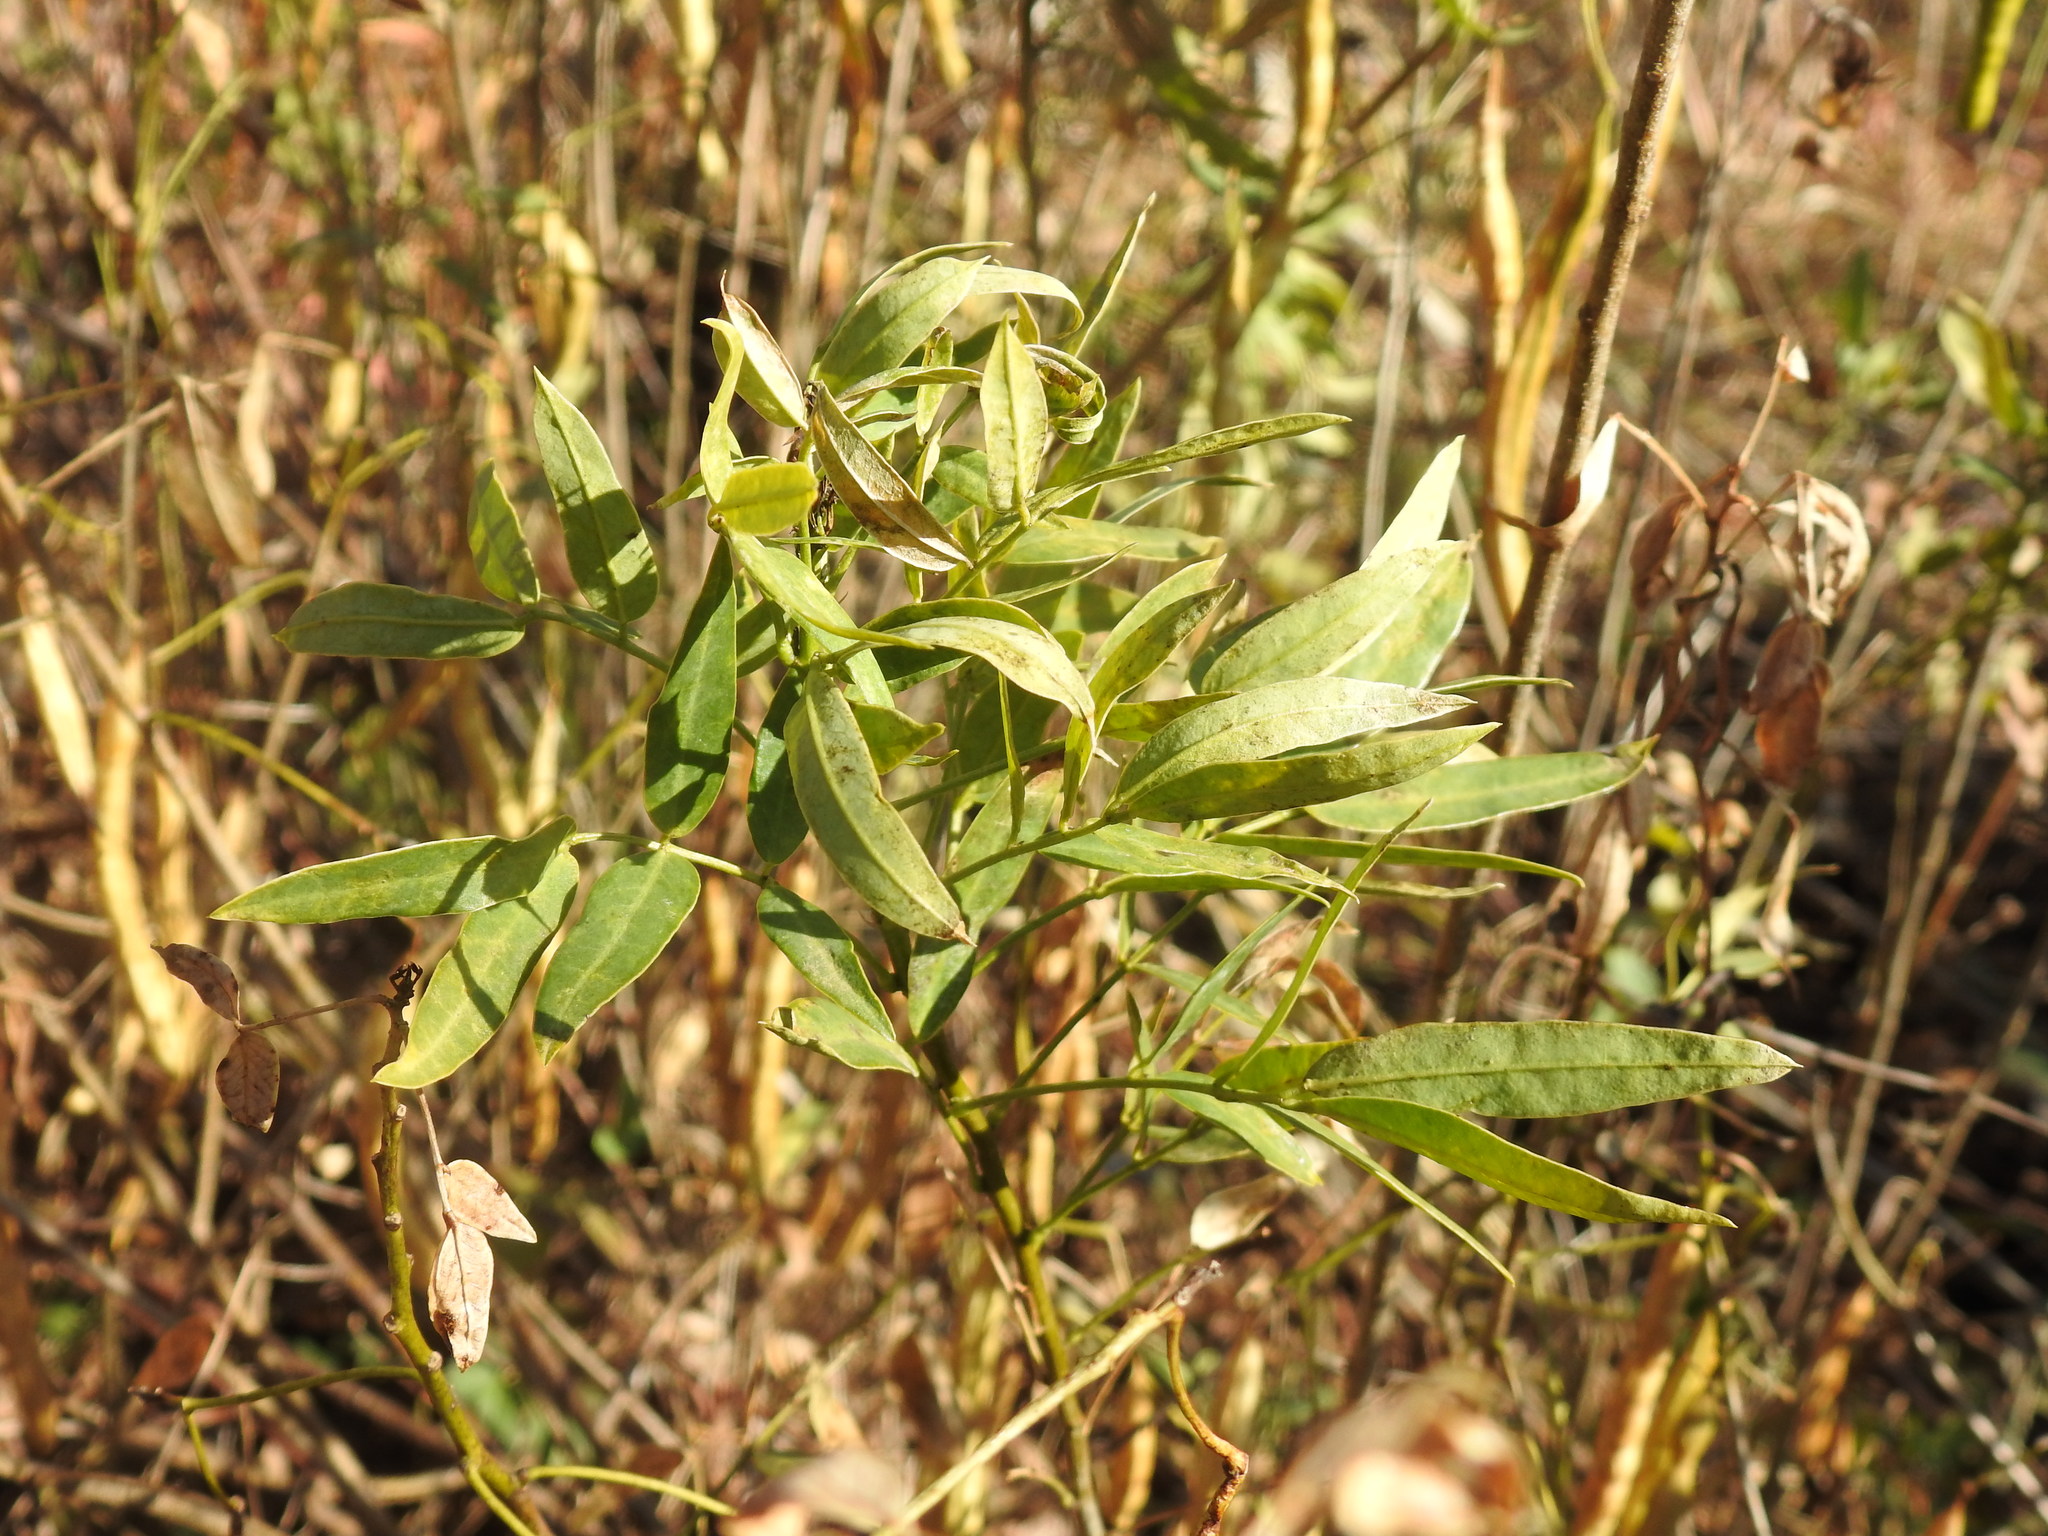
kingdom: Plantae
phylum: Tracheophyta
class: Magnoliopsida
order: Fabales
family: Fabaceae
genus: Senna
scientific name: Senna corymbosa
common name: Argentine senna
